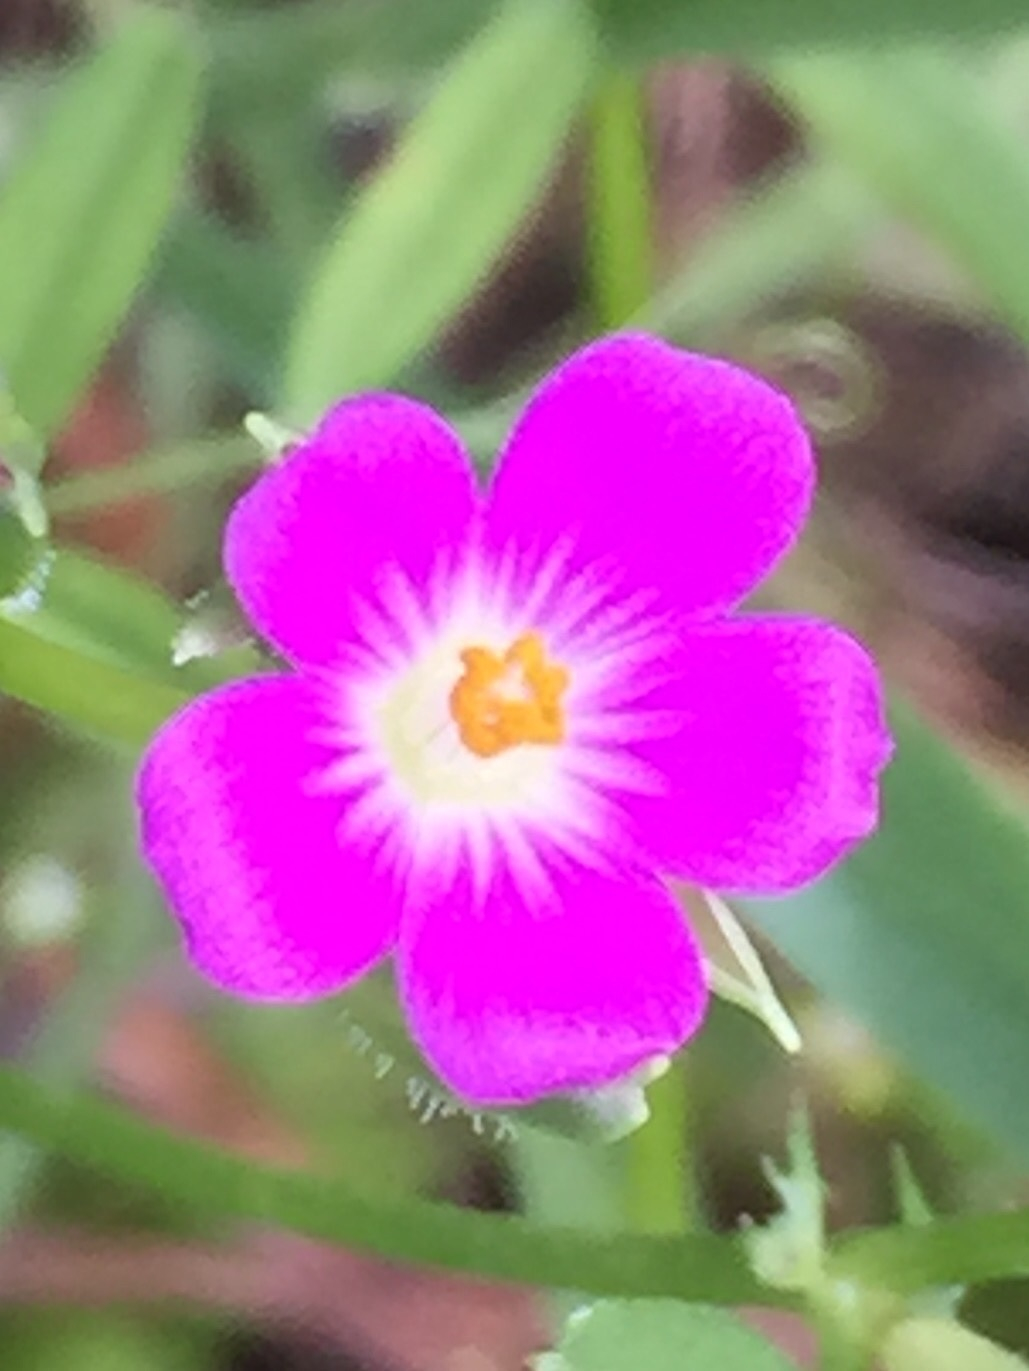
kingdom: Plantae
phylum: Tracheophyta
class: Magnoliopsida
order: Caryophyllales
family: Montiaceae
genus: Calandrinia
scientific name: Calandrinia menziesii
